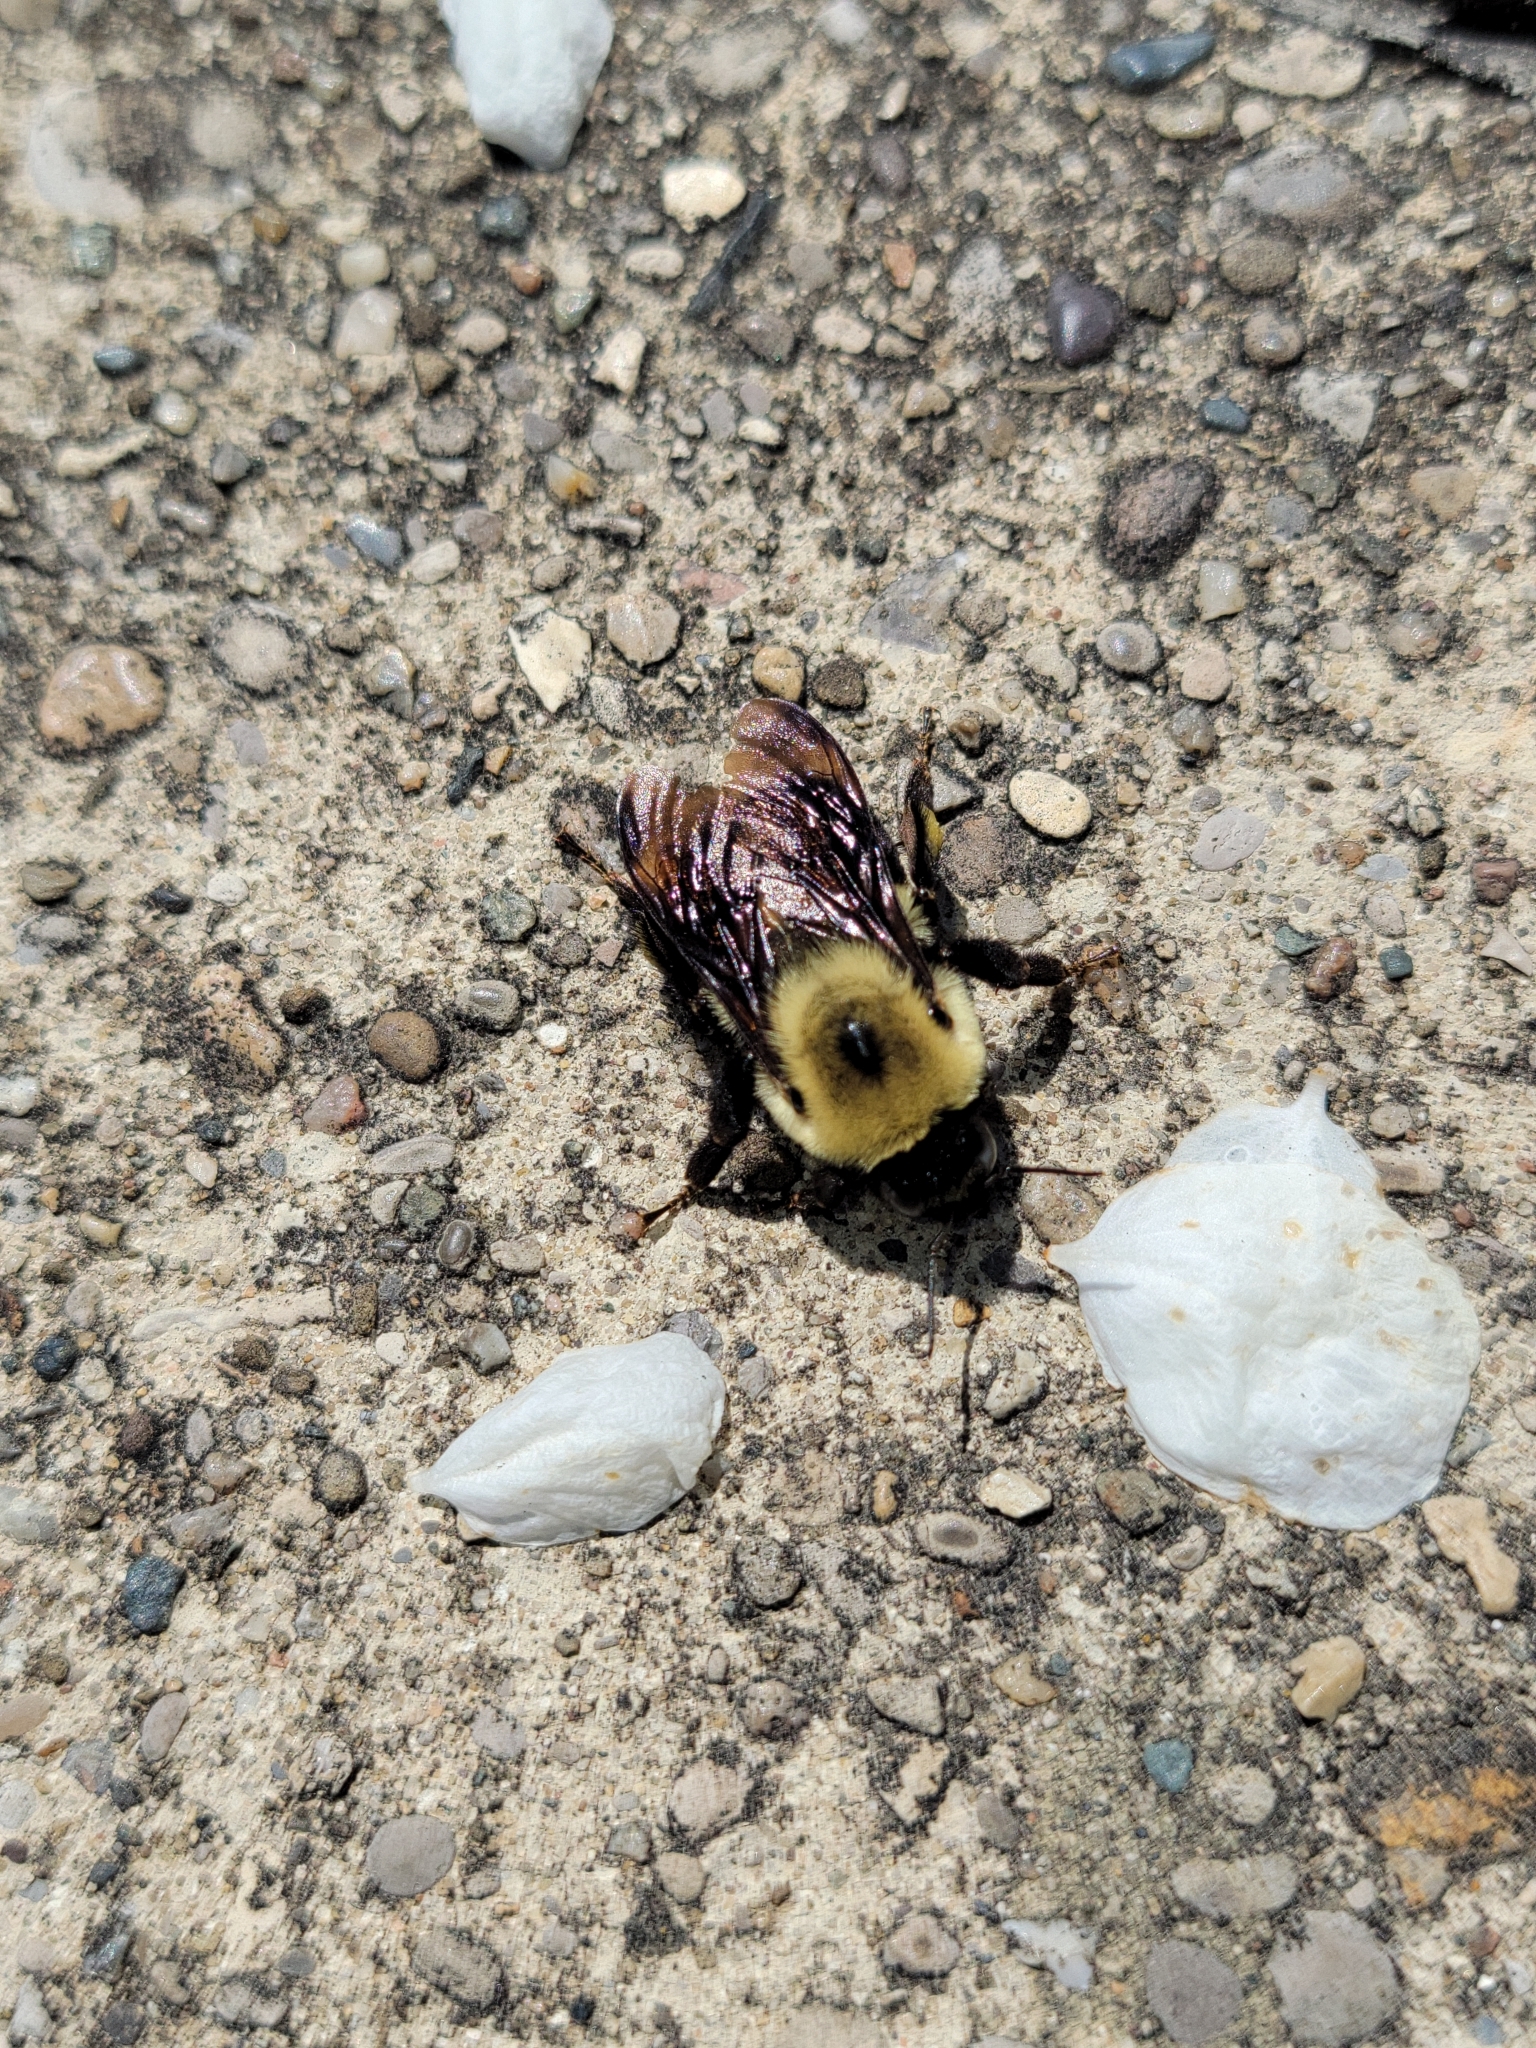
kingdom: Animalia
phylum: Arthropoda
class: Insecta
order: Hymenoptera
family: Apidae
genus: Bombus
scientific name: Bombus griseocollis
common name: Brown-belted bumble bee
